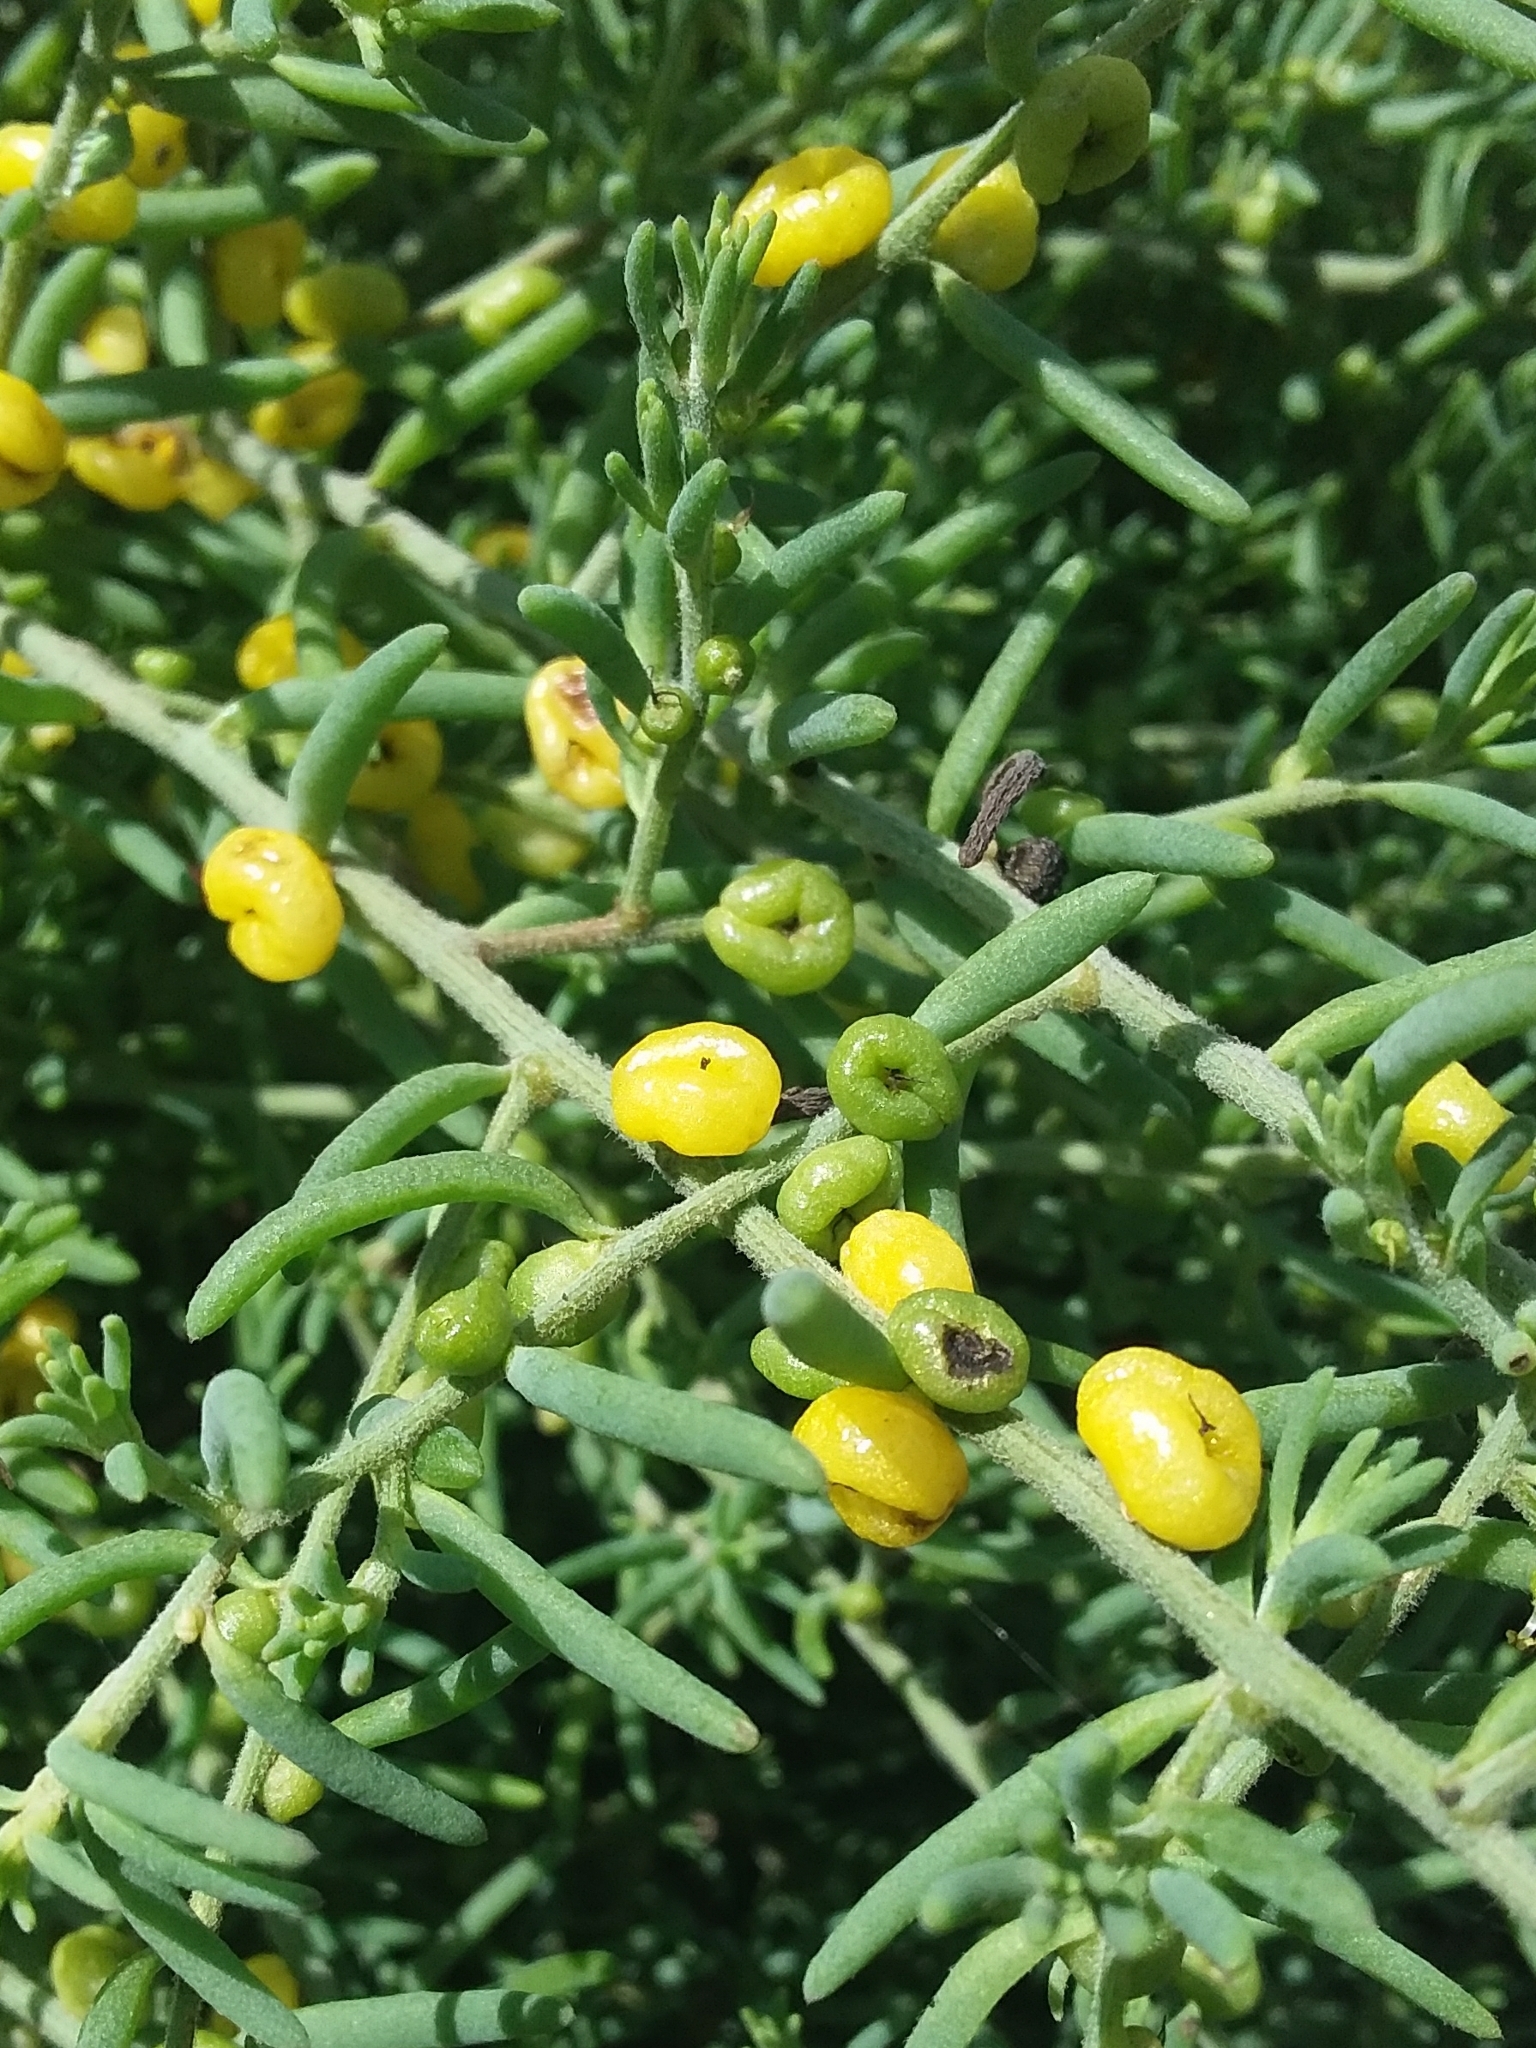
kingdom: Plantae
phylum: Tracheophyta
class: Magnoliopsida
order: Caryophyllales
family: Amaranthaceae
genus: Enchylaena
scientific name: Enchylaena tomentosa
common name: Ruby saltbush
